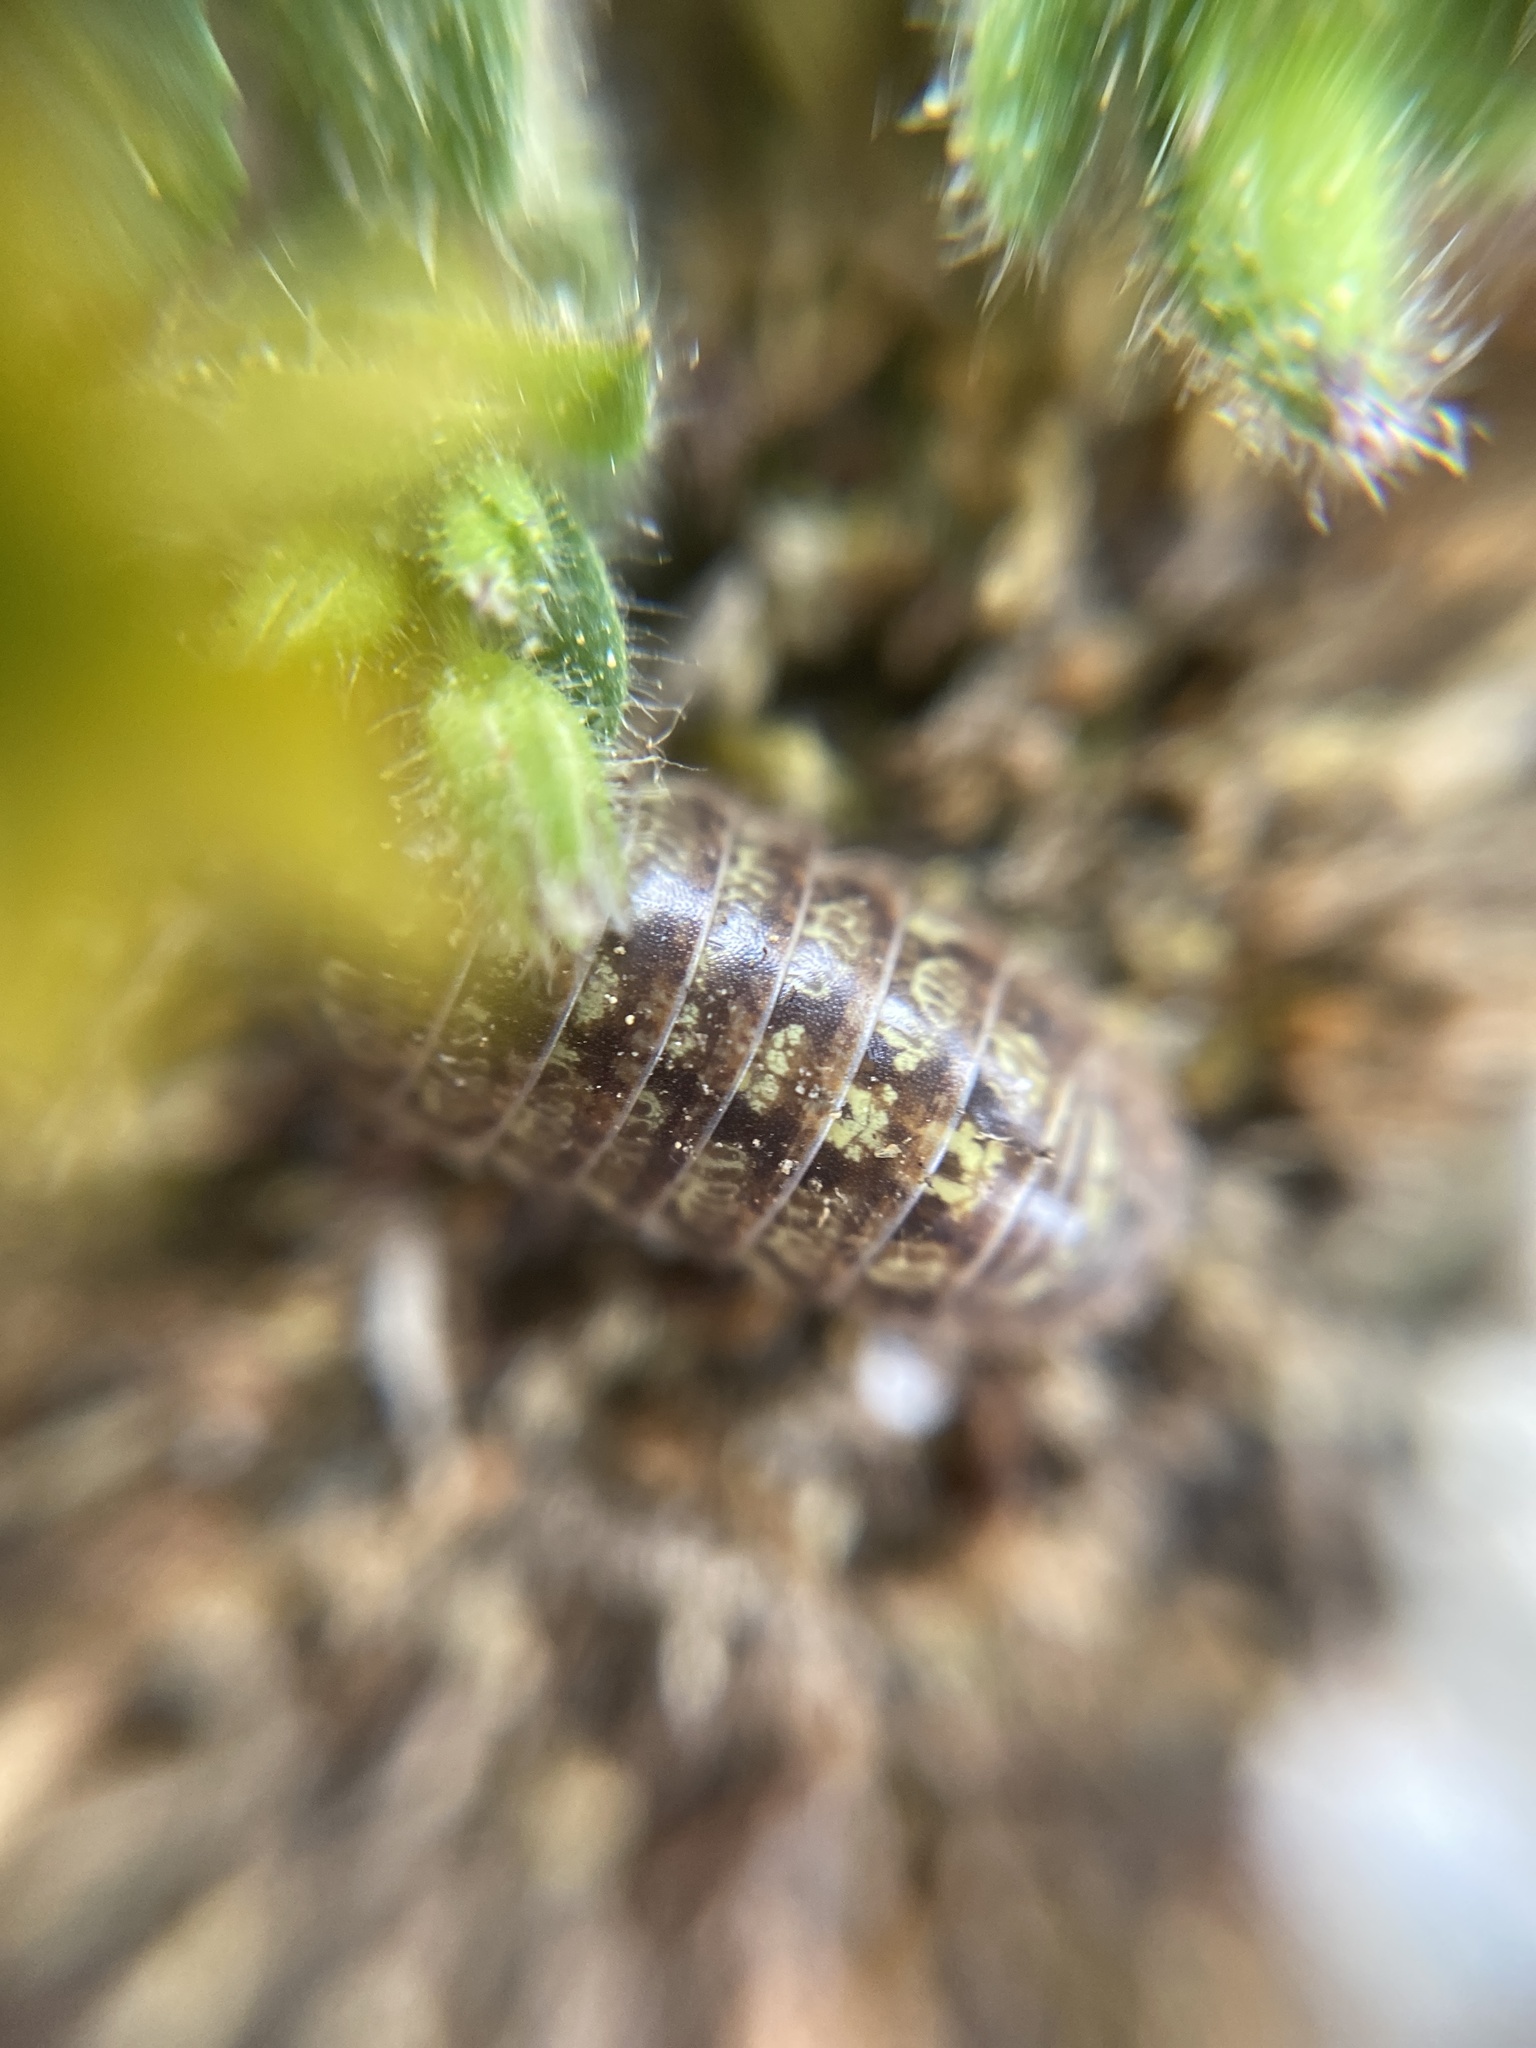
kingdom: Animalia
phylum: Arthropoda
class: Malacostraca
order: Isopoda
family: Armadillidiidae
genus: Armadillidium
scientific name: Armadillidium vulgare
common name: Common pill woodlouse
